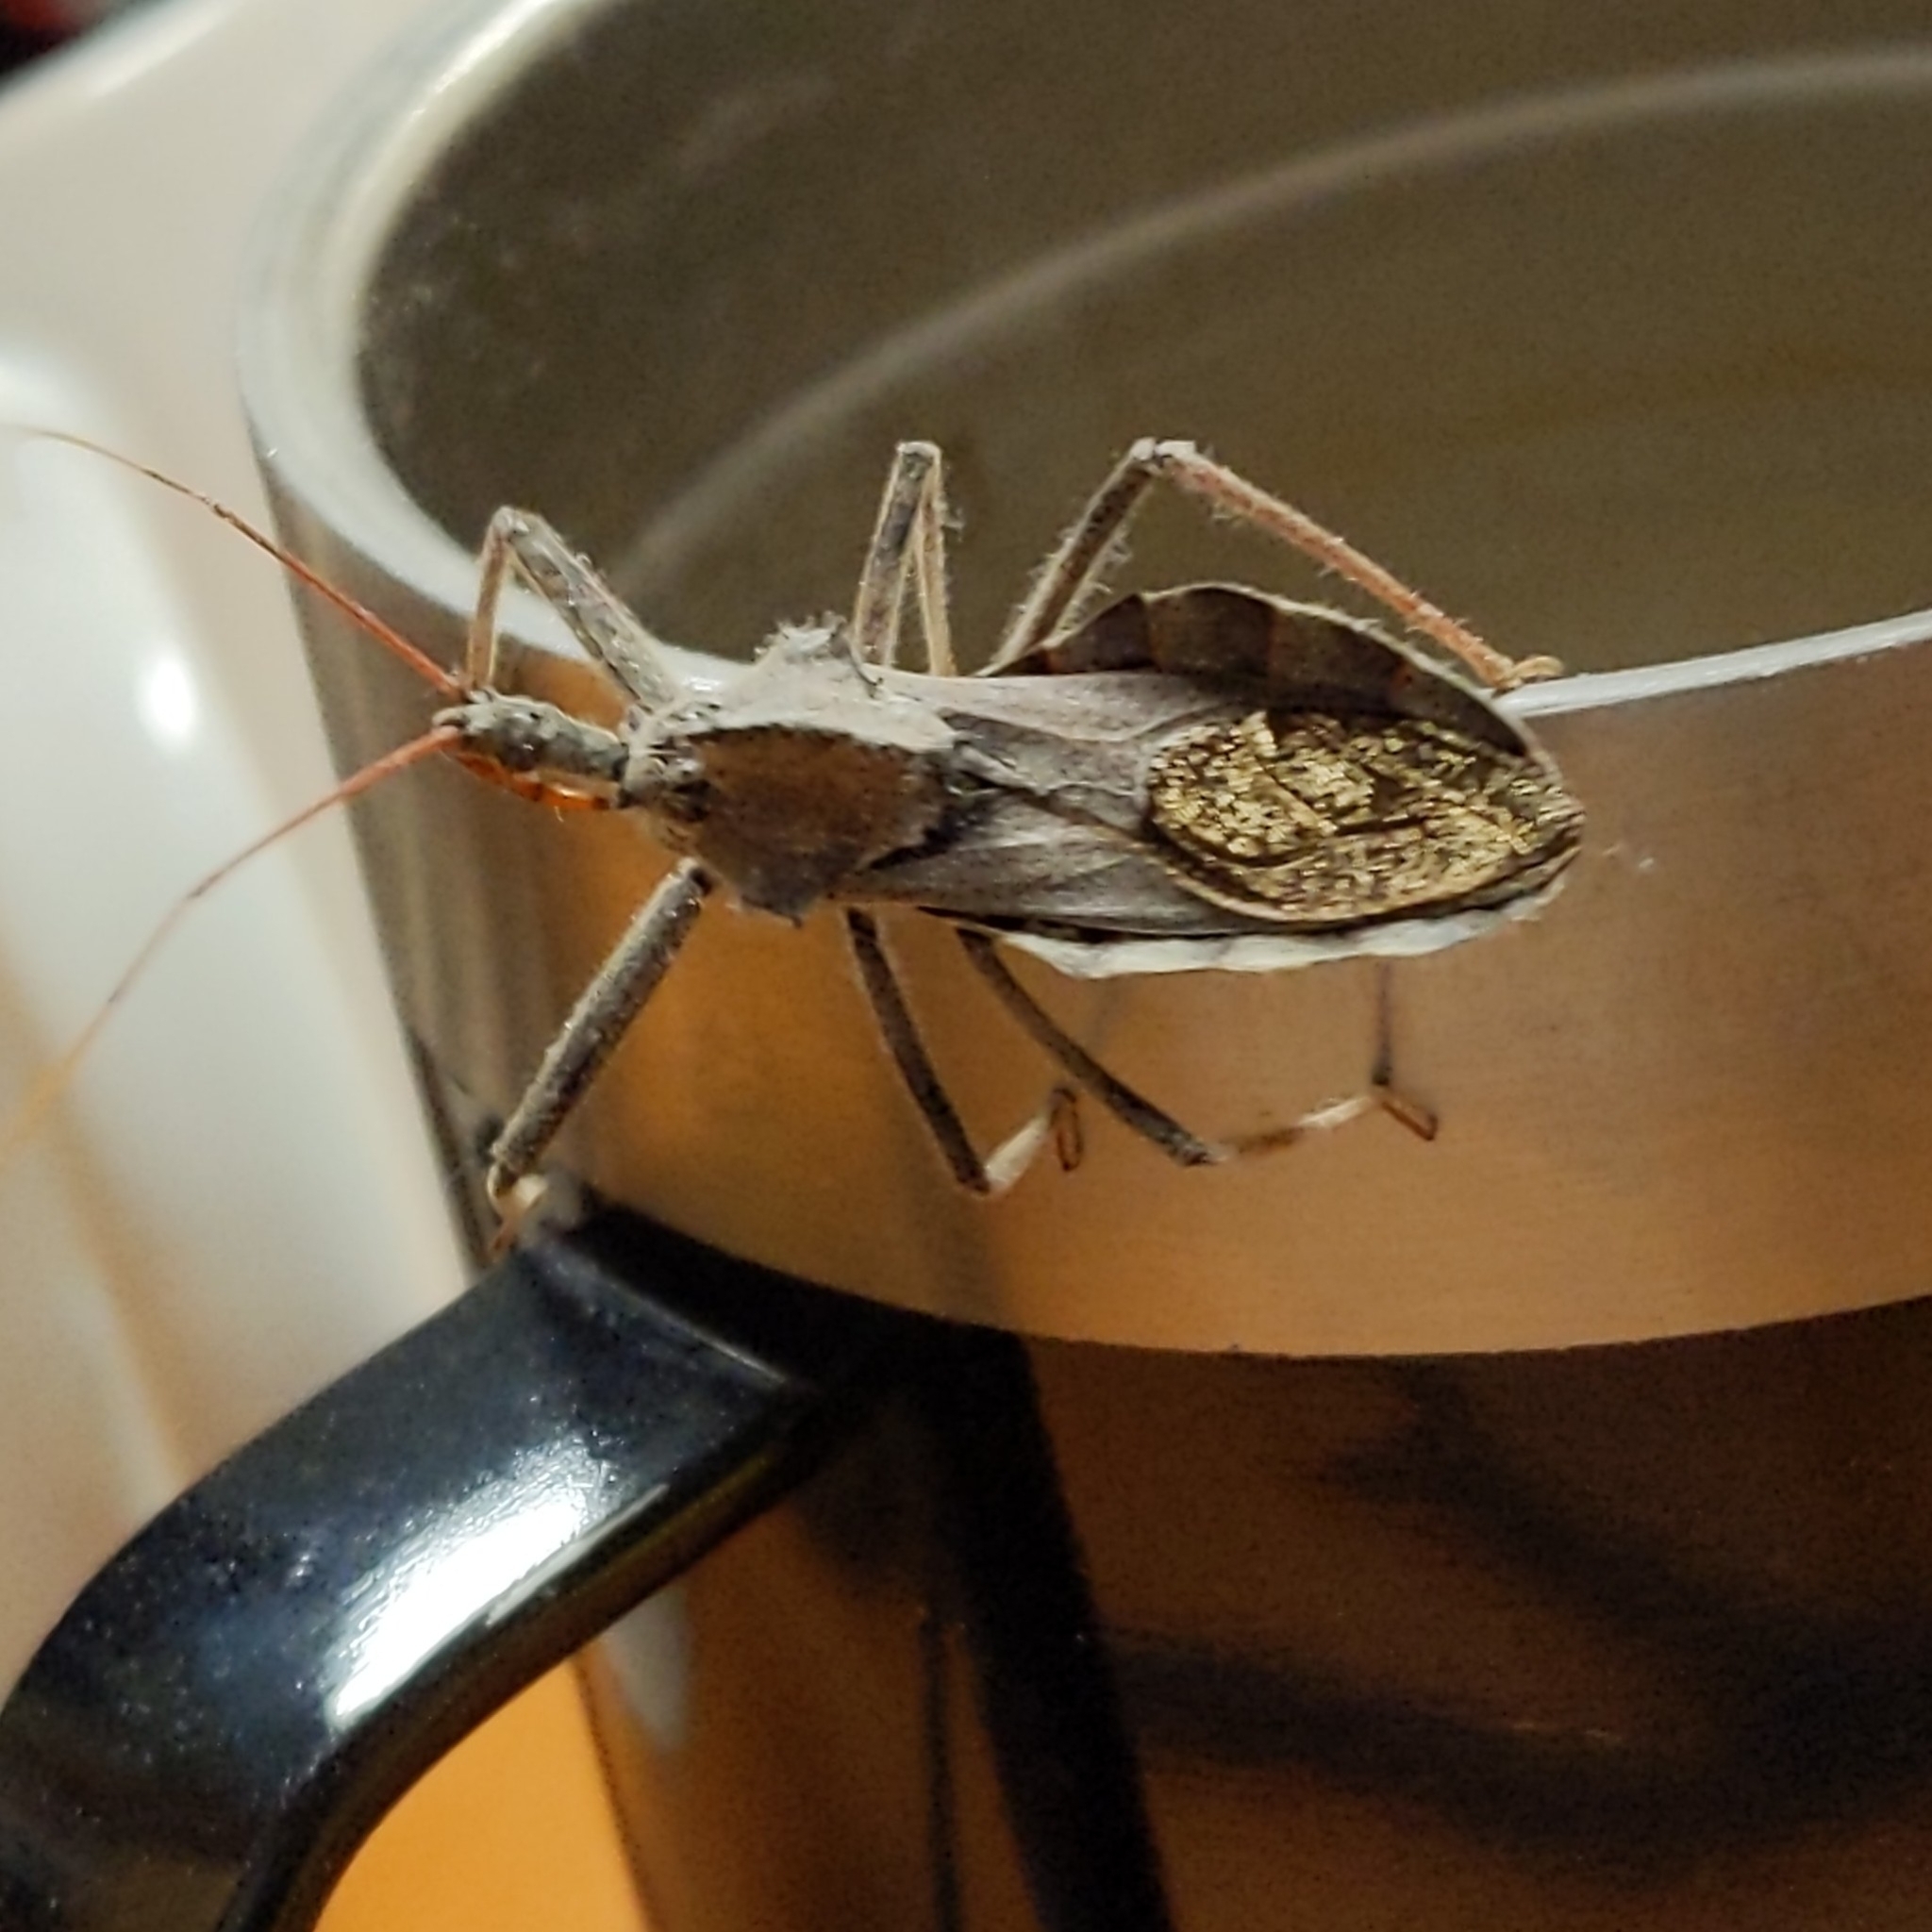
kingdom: Animalia
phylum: Arthropoda
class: Insecta
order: Hemiptera
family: Reduviidae
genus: Arilus
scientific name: Arilus cristatus
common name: North american wheel bug
